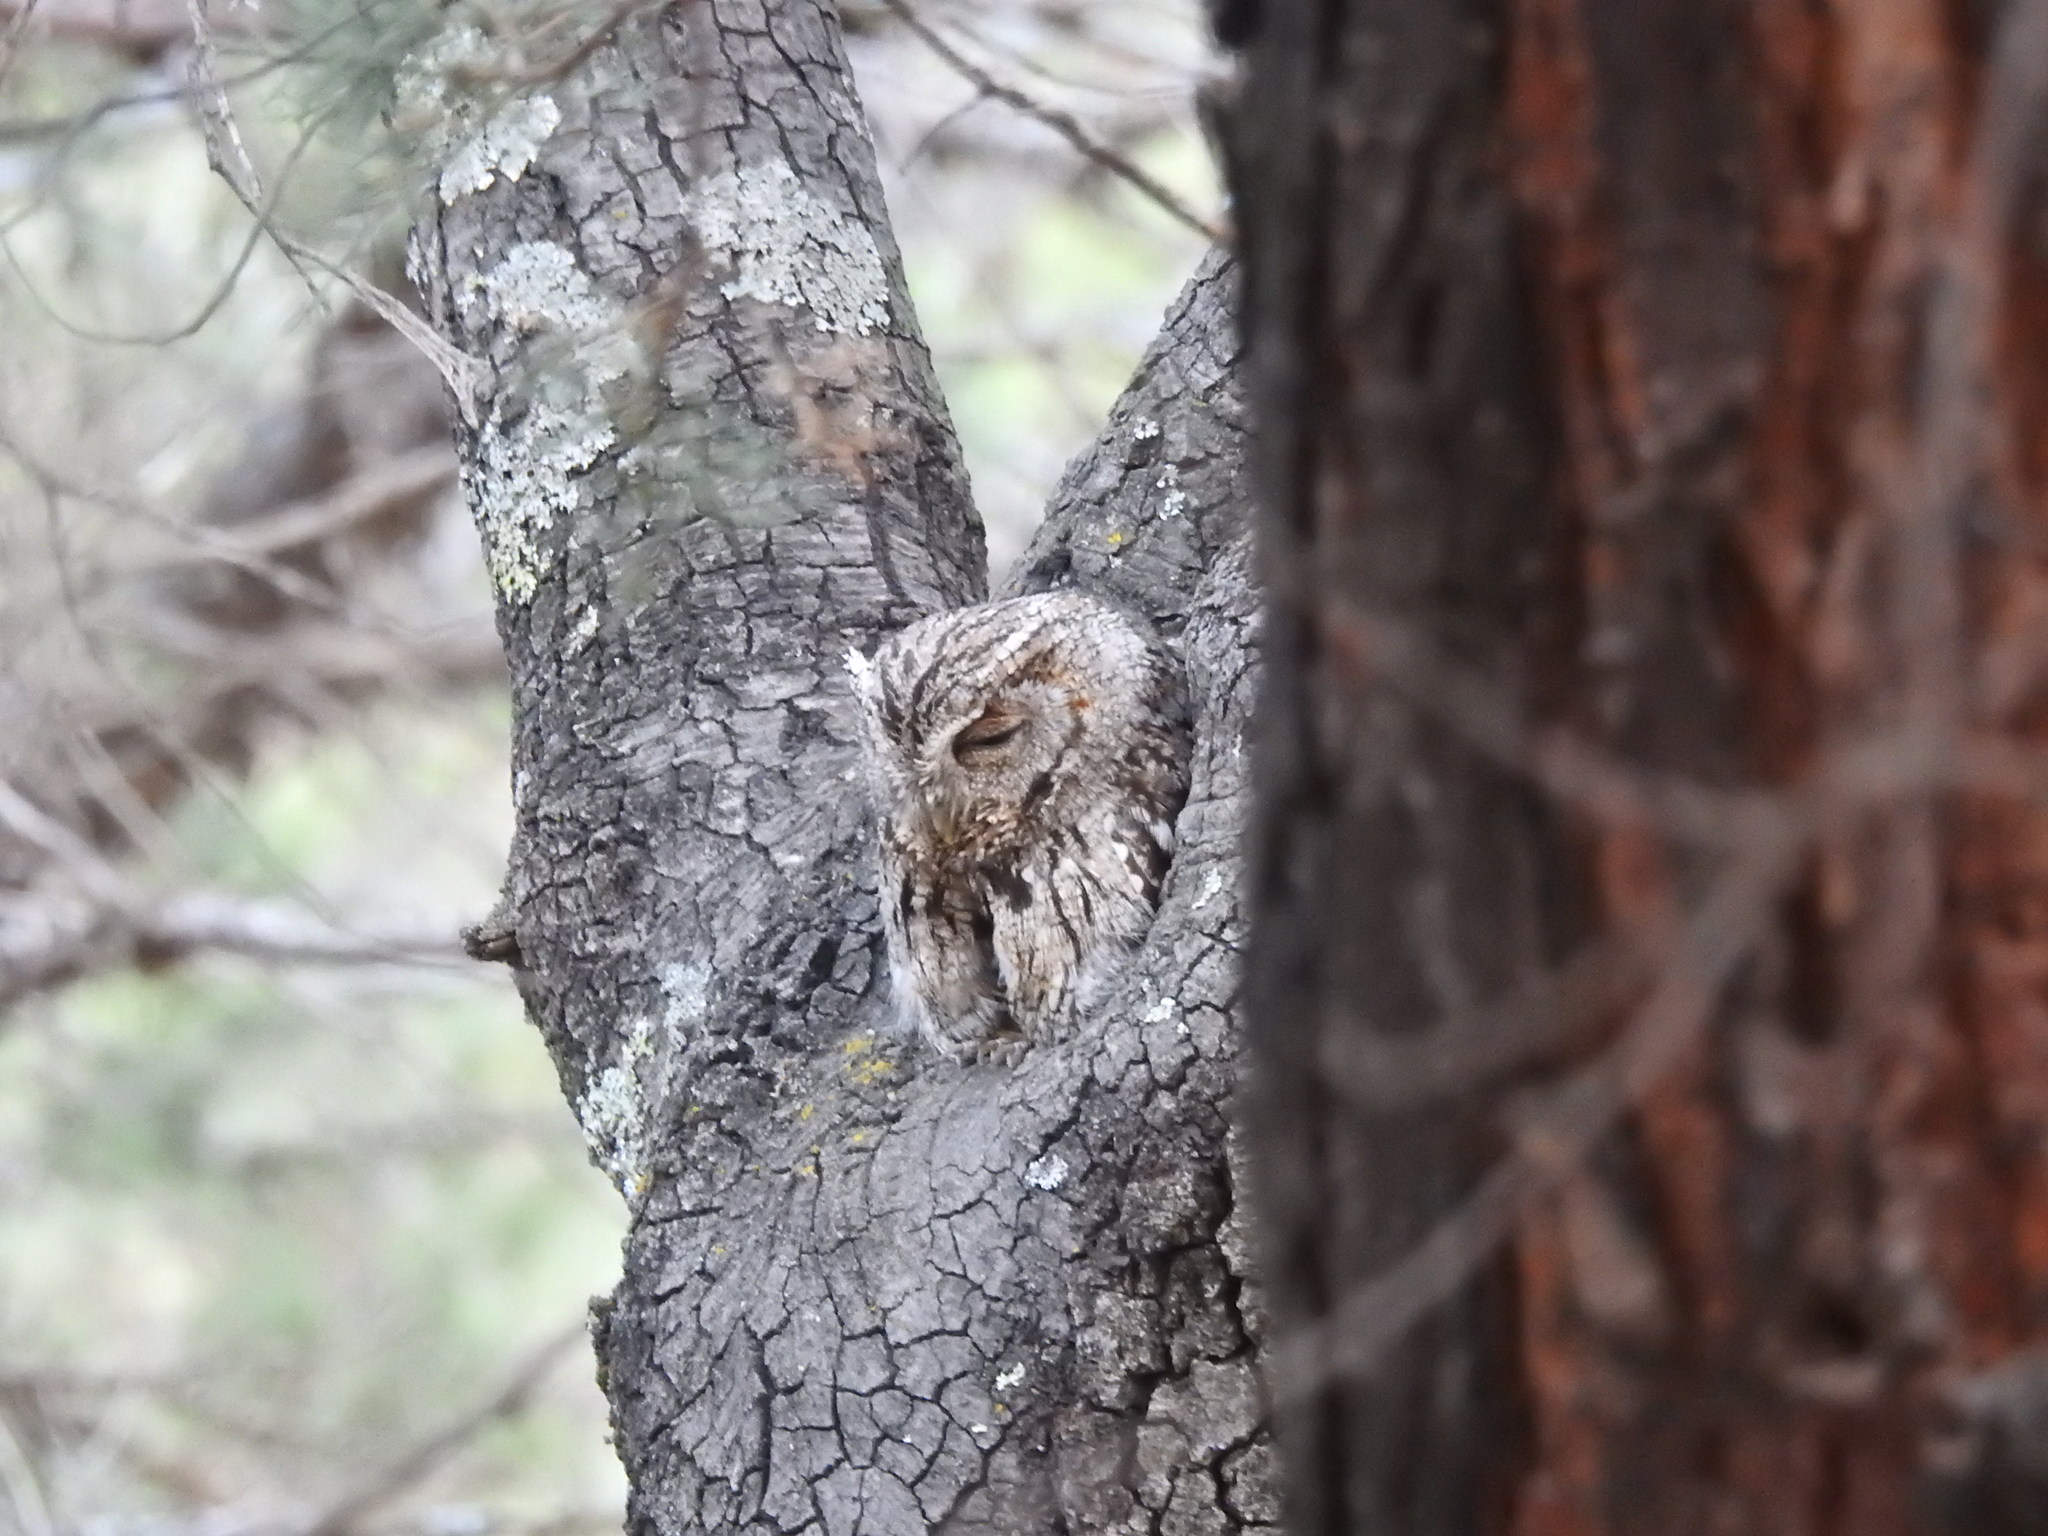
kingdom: Animalia
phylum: Chordata
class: Aves
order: Strigiformes
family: Strigidae
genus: Megascops
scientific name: Megascops trichopsis
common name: Whiskered screech-owl
